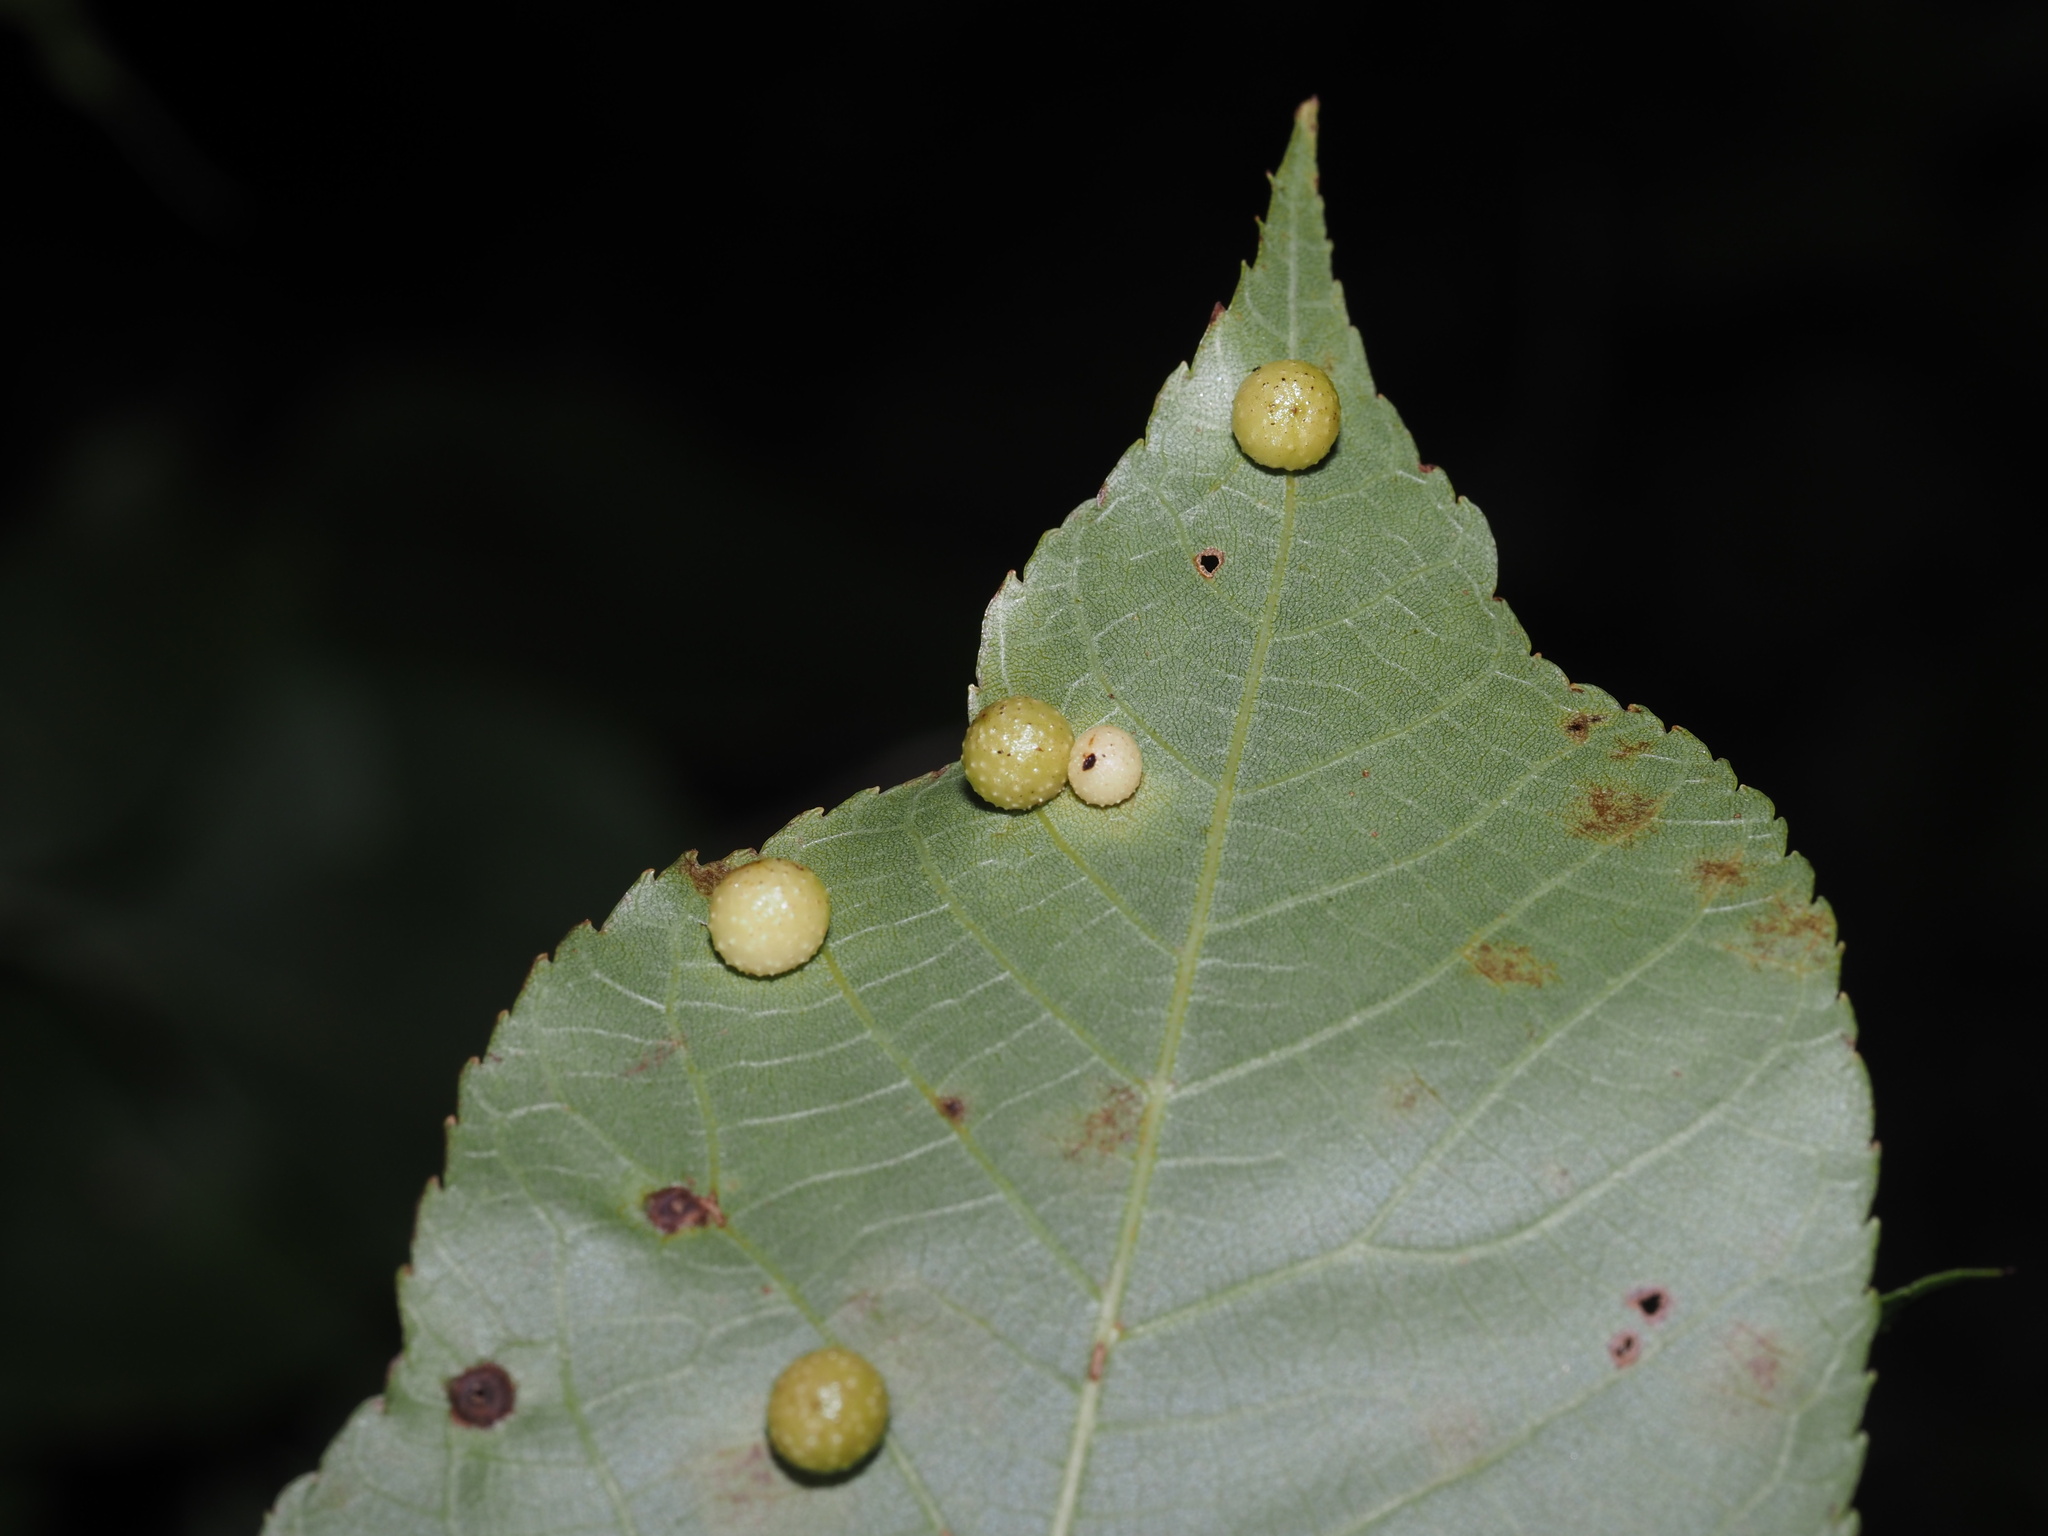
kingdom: Animalia
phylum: Arthropoda
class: Insecta
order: Diptera
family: Cecidomyiidae
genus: Caryomyia
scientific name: Caryomyia tuberculata
